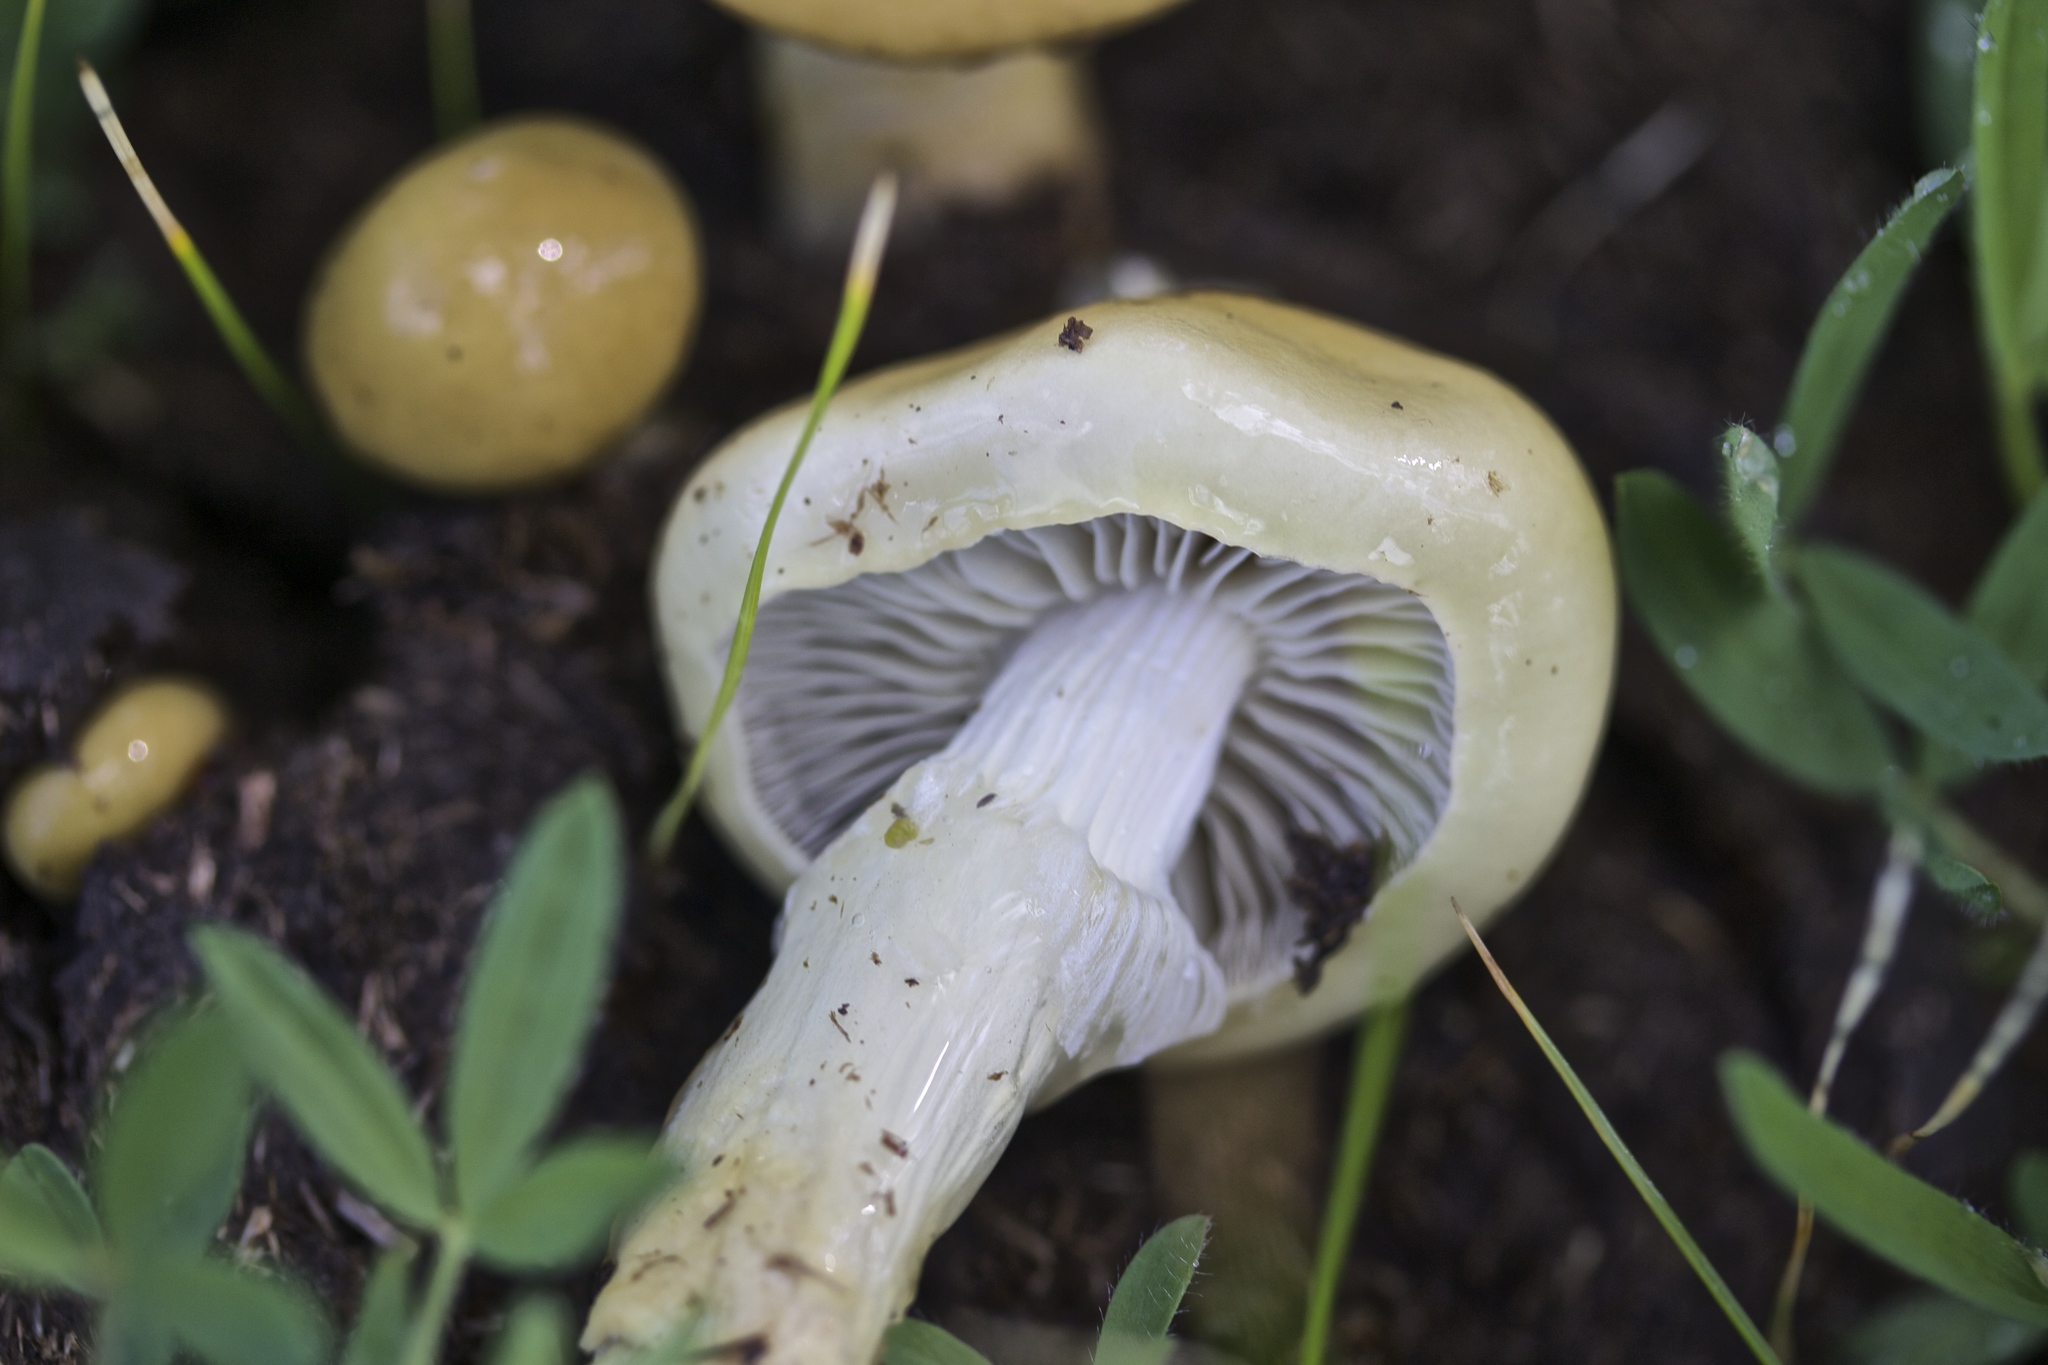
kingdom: Fungi
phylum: Basidiomycota
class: Agaricomycetes
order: Agaricales
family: Strophariaceae
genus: Protostropharia
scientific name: Protostropharia dorsipora
